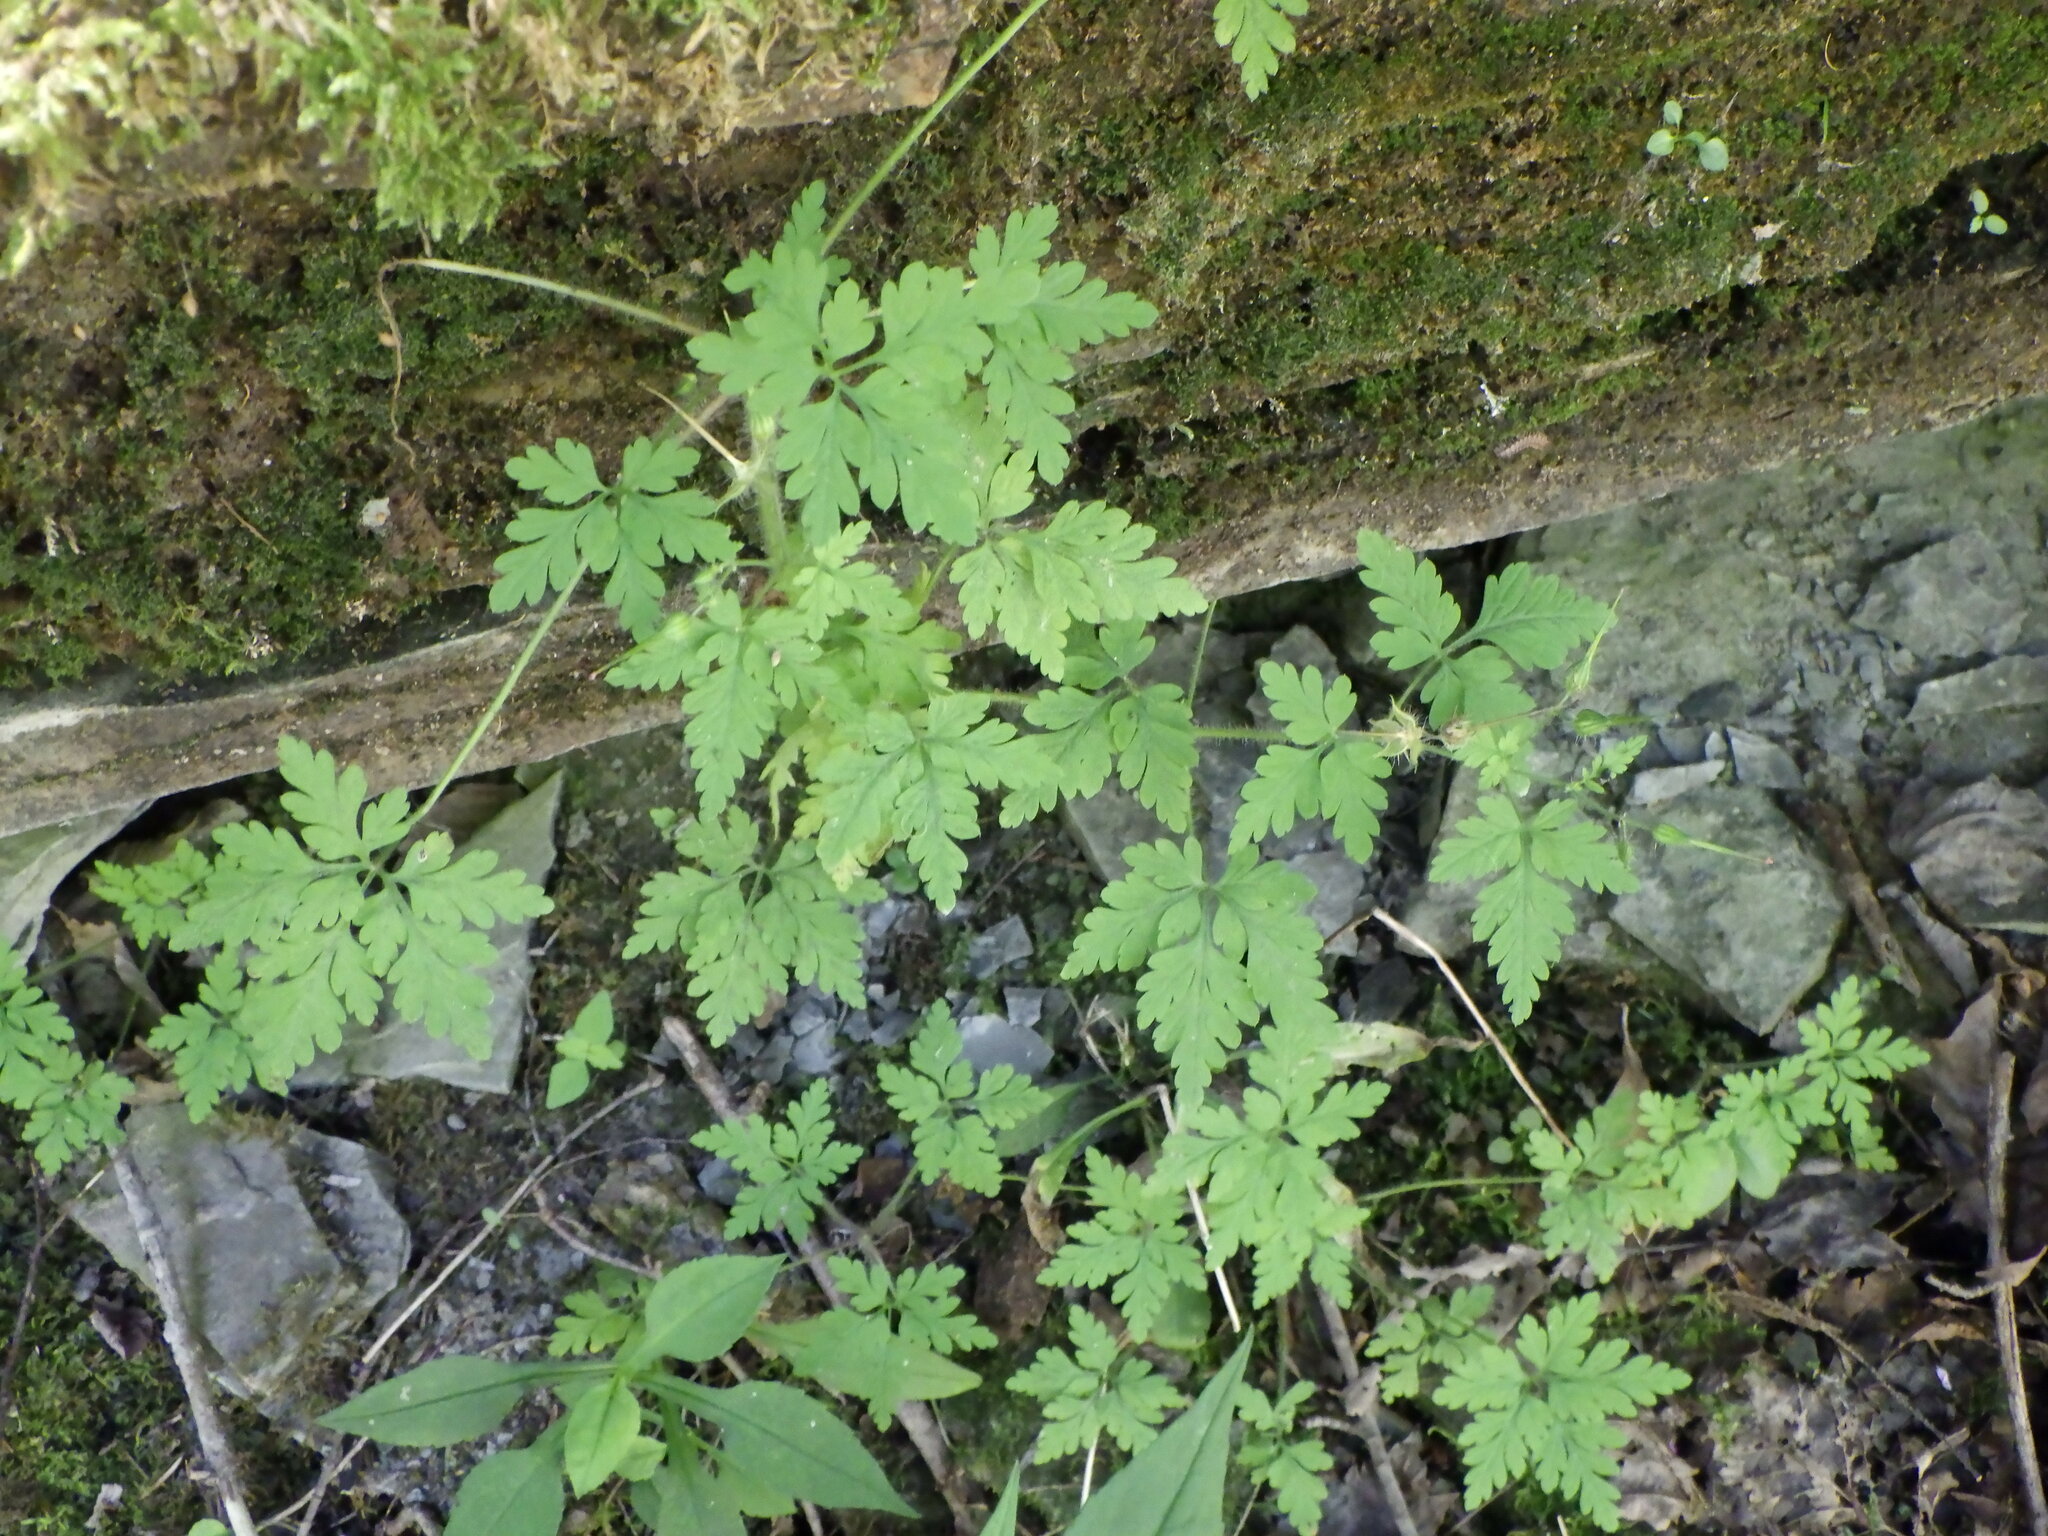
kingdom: Plantae
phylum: Tracheophyta
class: Magnoliopsida
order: Geraniales
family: Geraniaceae
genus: Geranium
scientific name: Geranium robertianum
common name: Herb-robert
